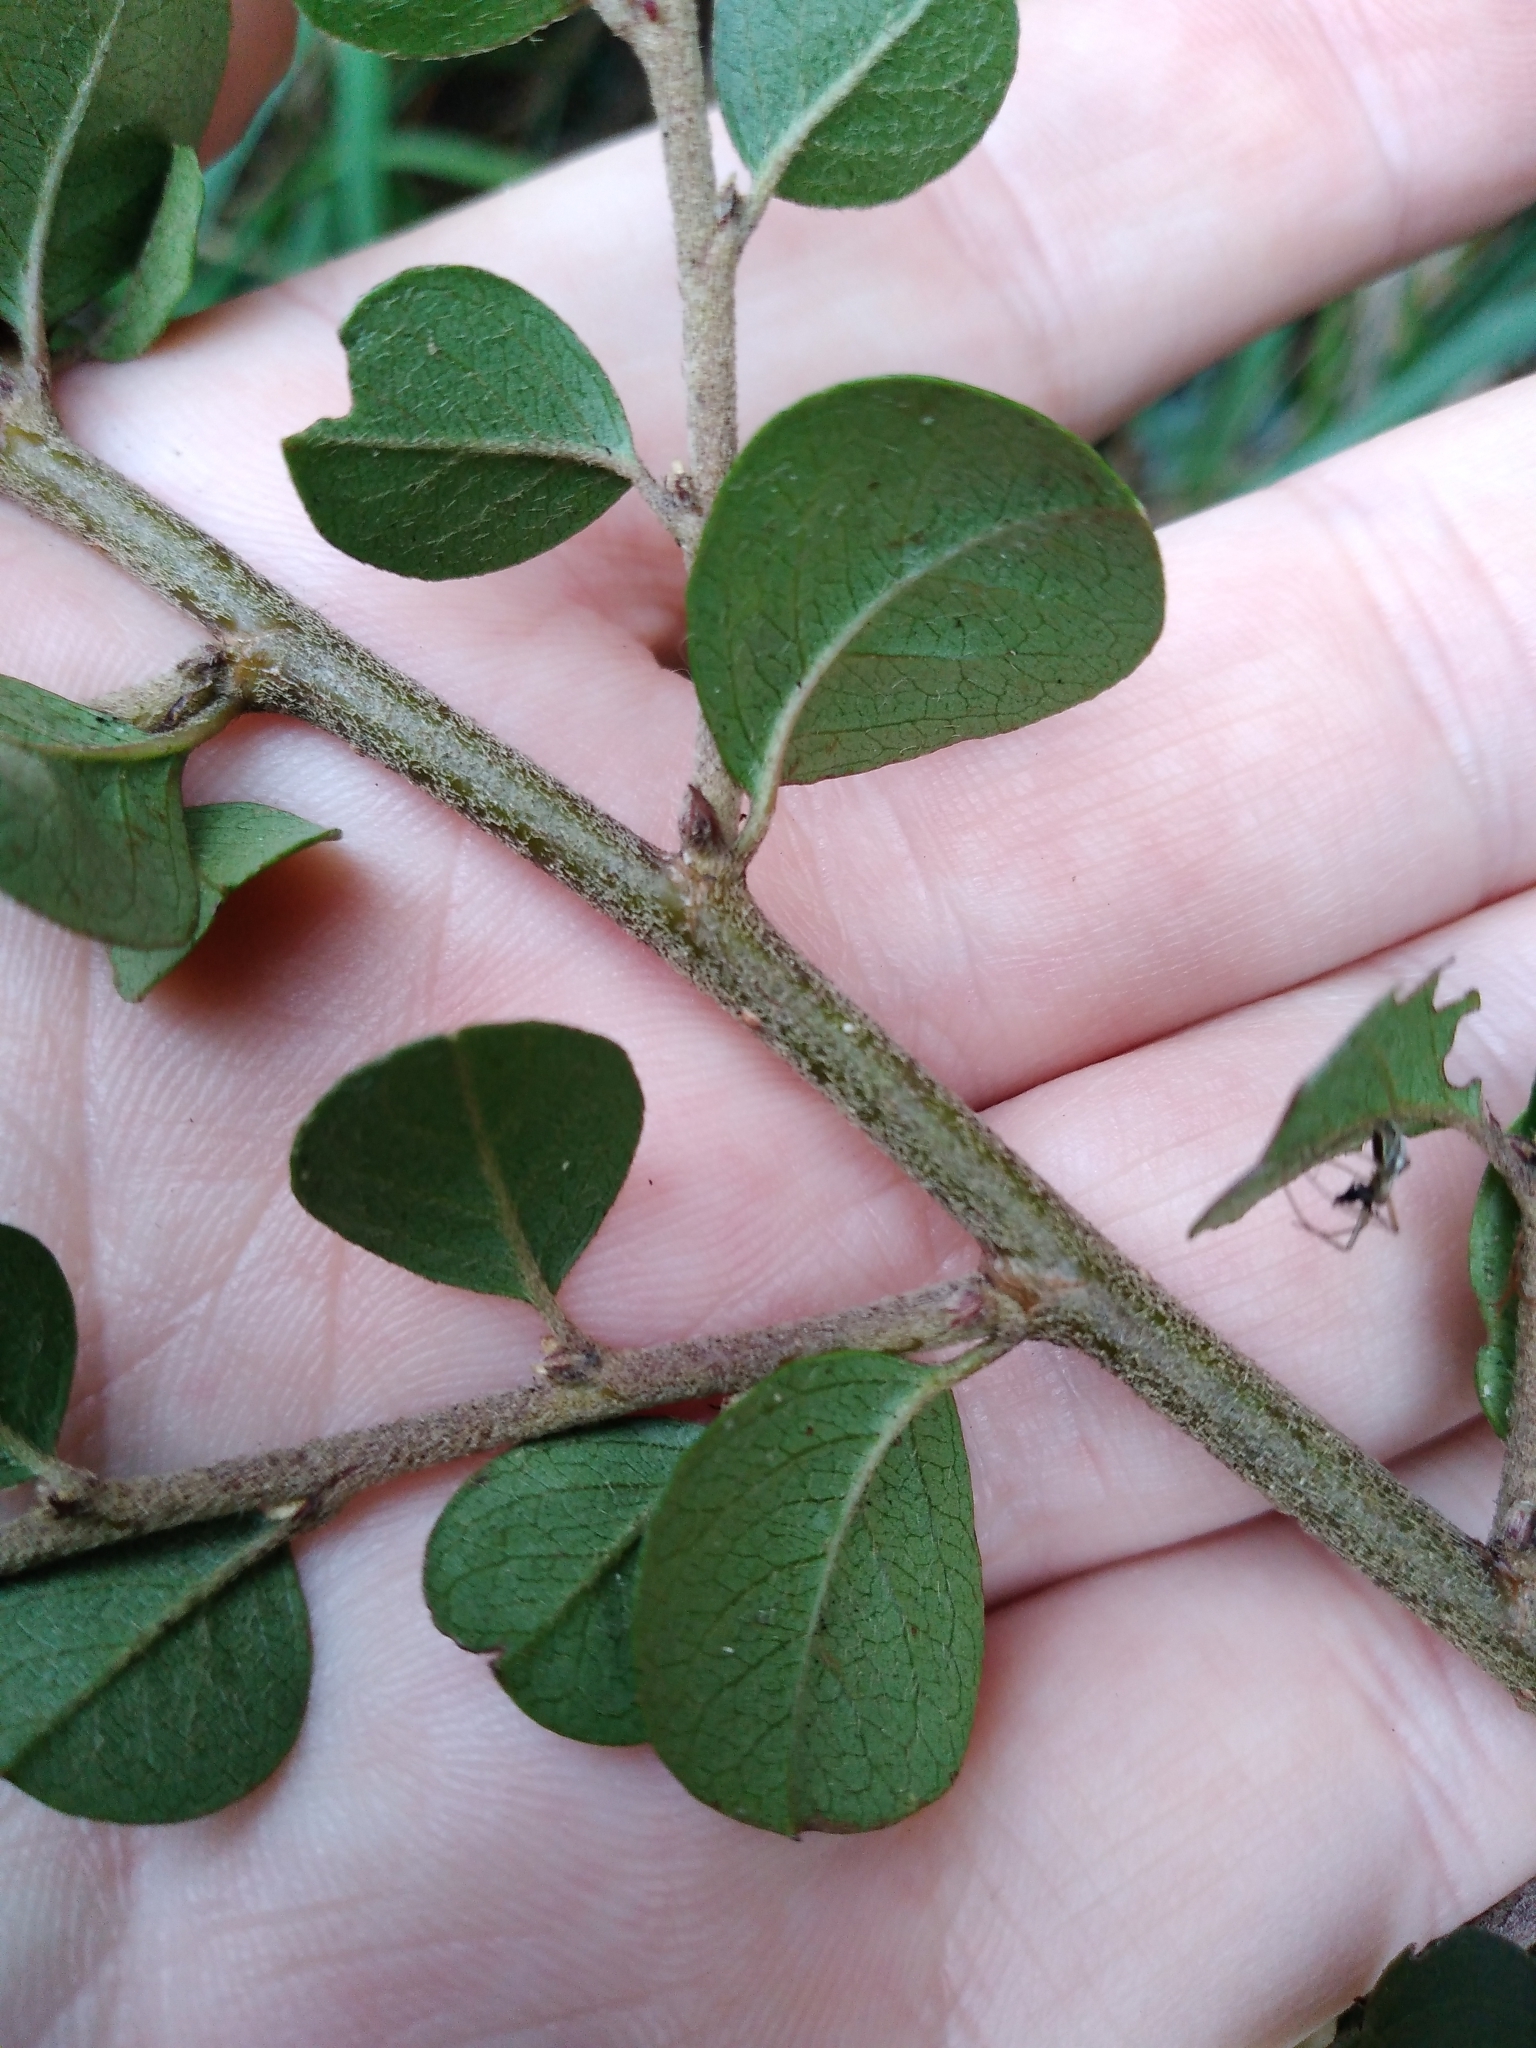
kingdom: Plantae
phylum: Tracheophyta
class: Magnoliopsida
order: Rosales
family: Rosaceae
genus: Cotoneaster
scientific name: Cotoneaster horizontalis
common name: Wall cotoneaster
